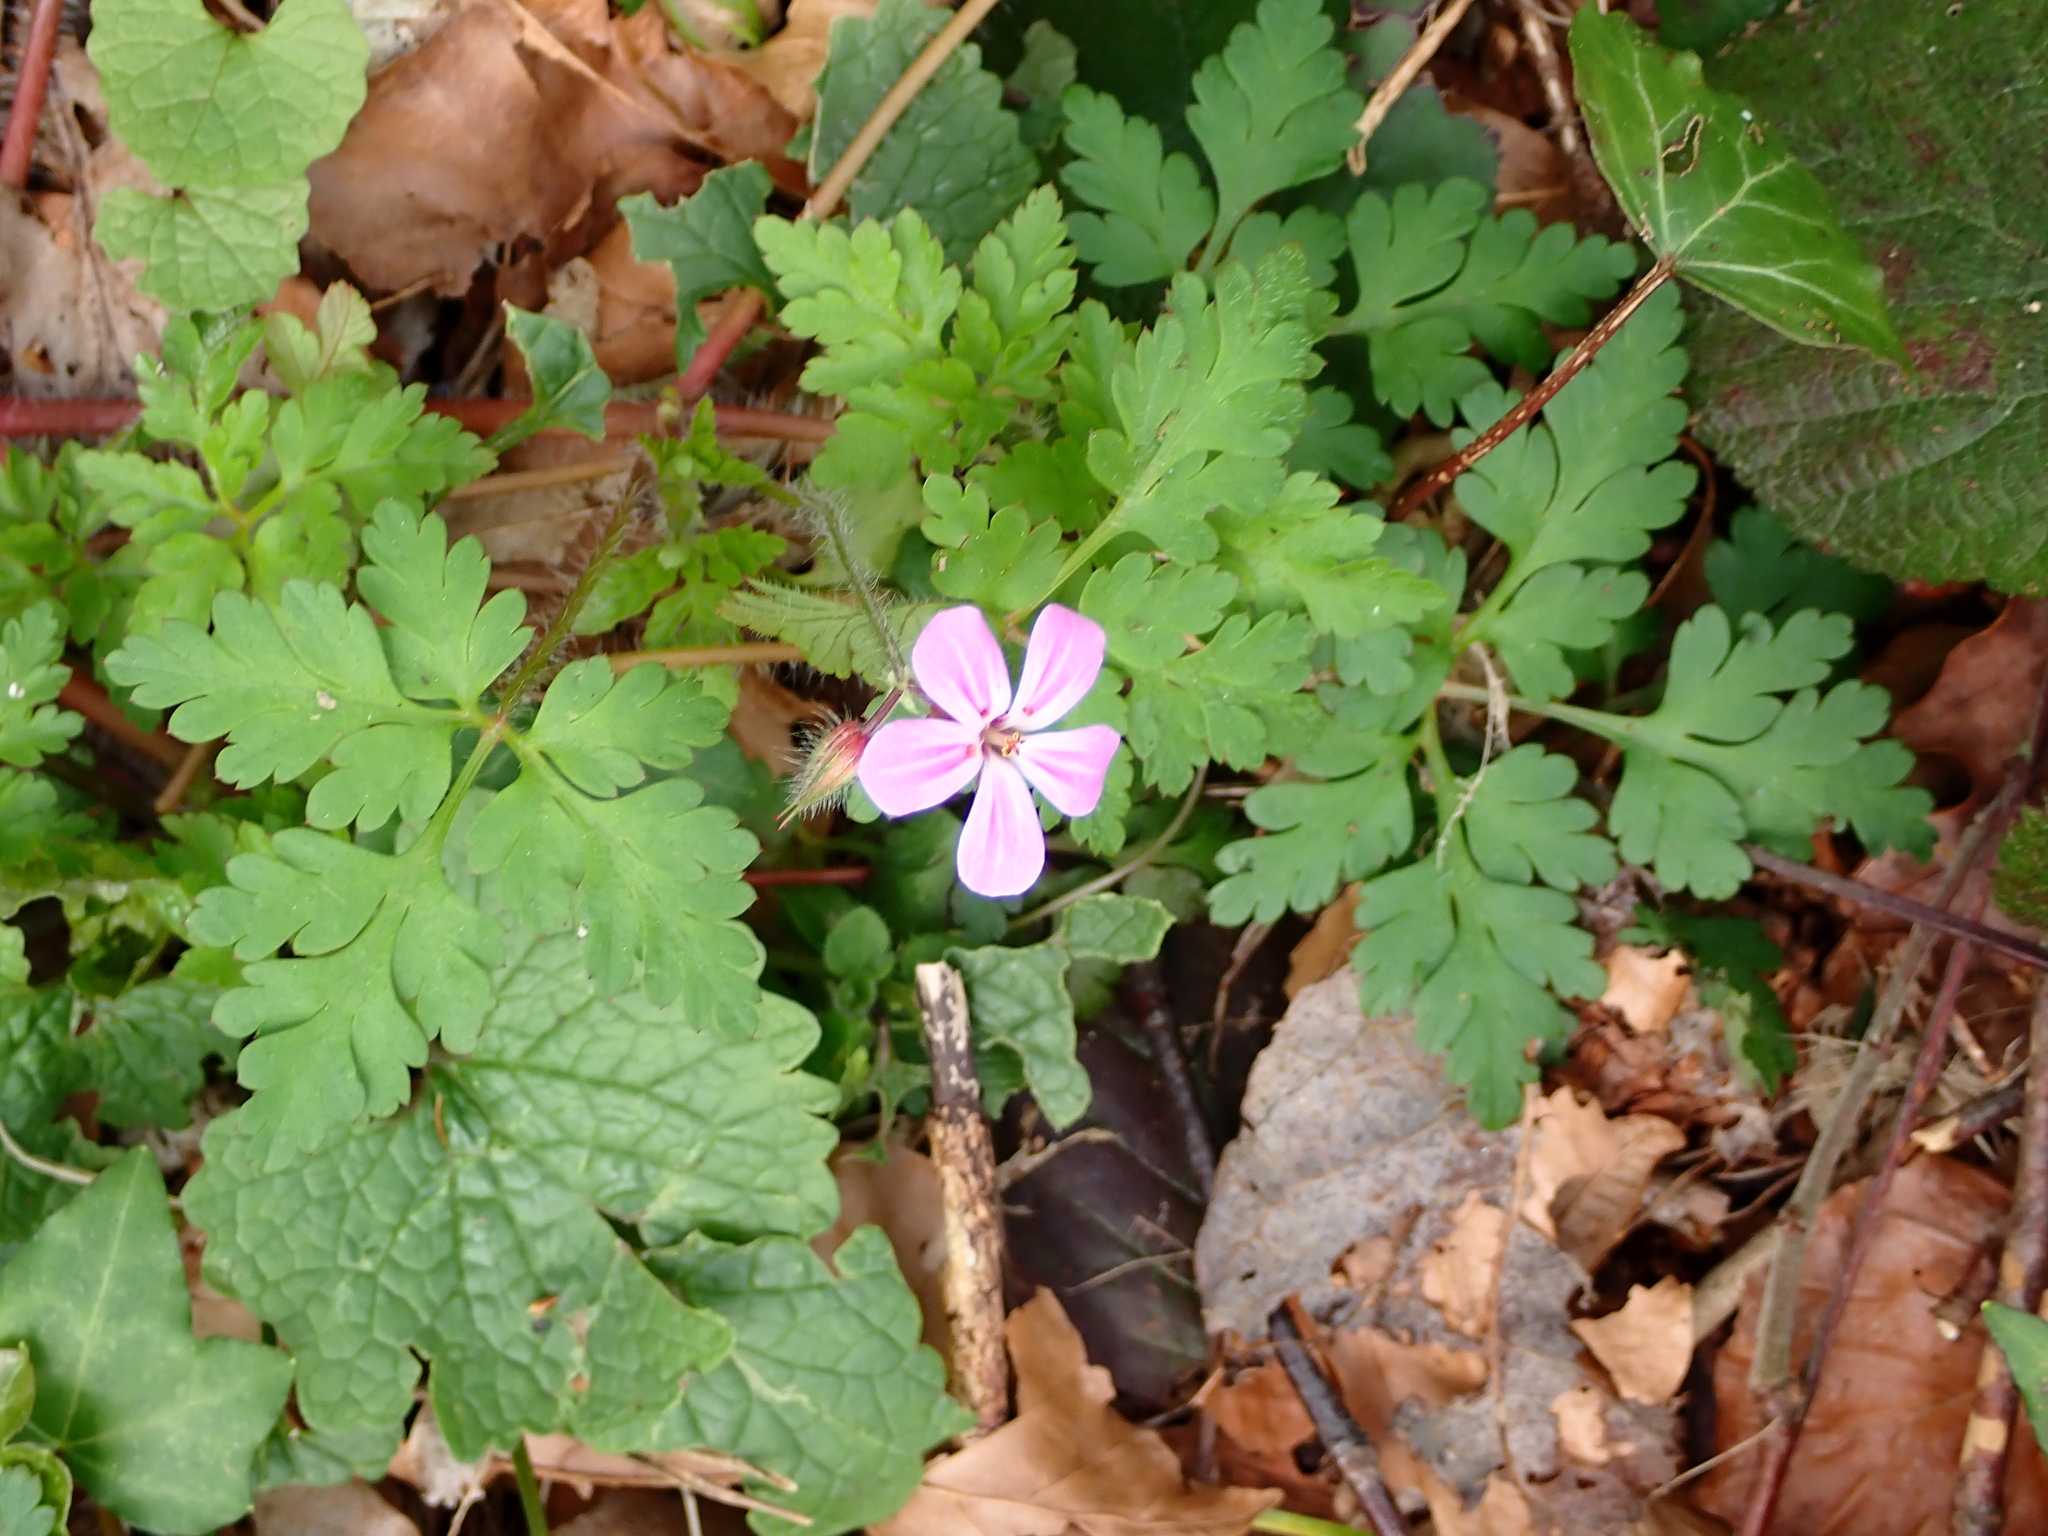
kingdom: Plantae
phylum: Tracheophyta
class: Magnoliopsida
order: Geraniales
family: Geraniaceae
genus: Geranium
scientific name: Geranium robertianum
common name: Herb-robert
